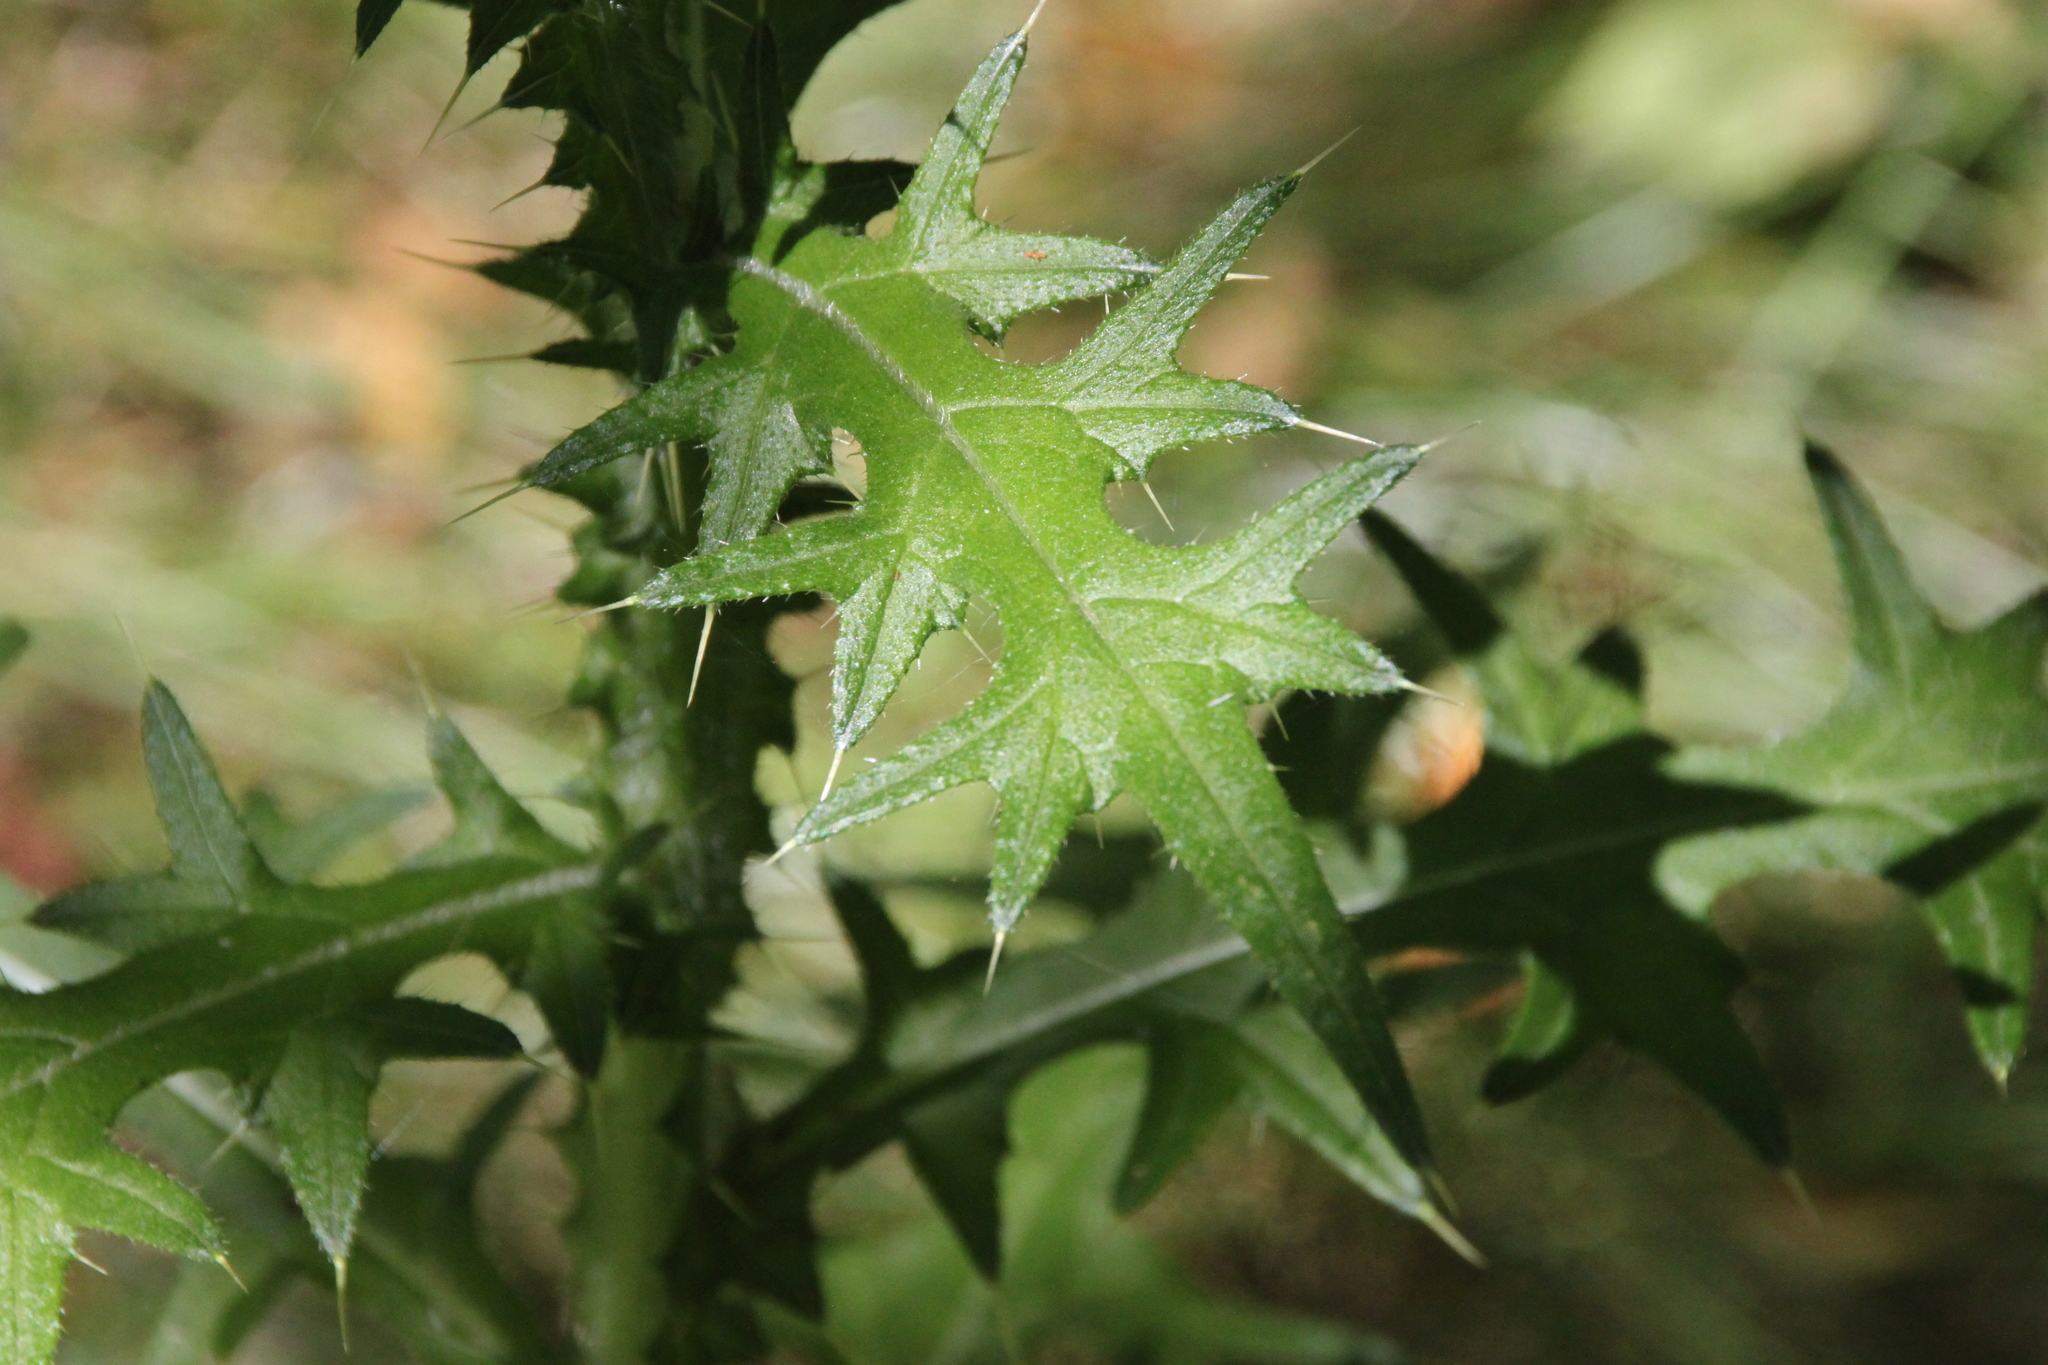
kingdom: Plantae
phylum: Tracheophyta
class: Magnoliopsida
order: Asterales
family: Asteraceae
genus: Cirsium
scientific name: Cirsium vulgare
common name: Bull thistle
